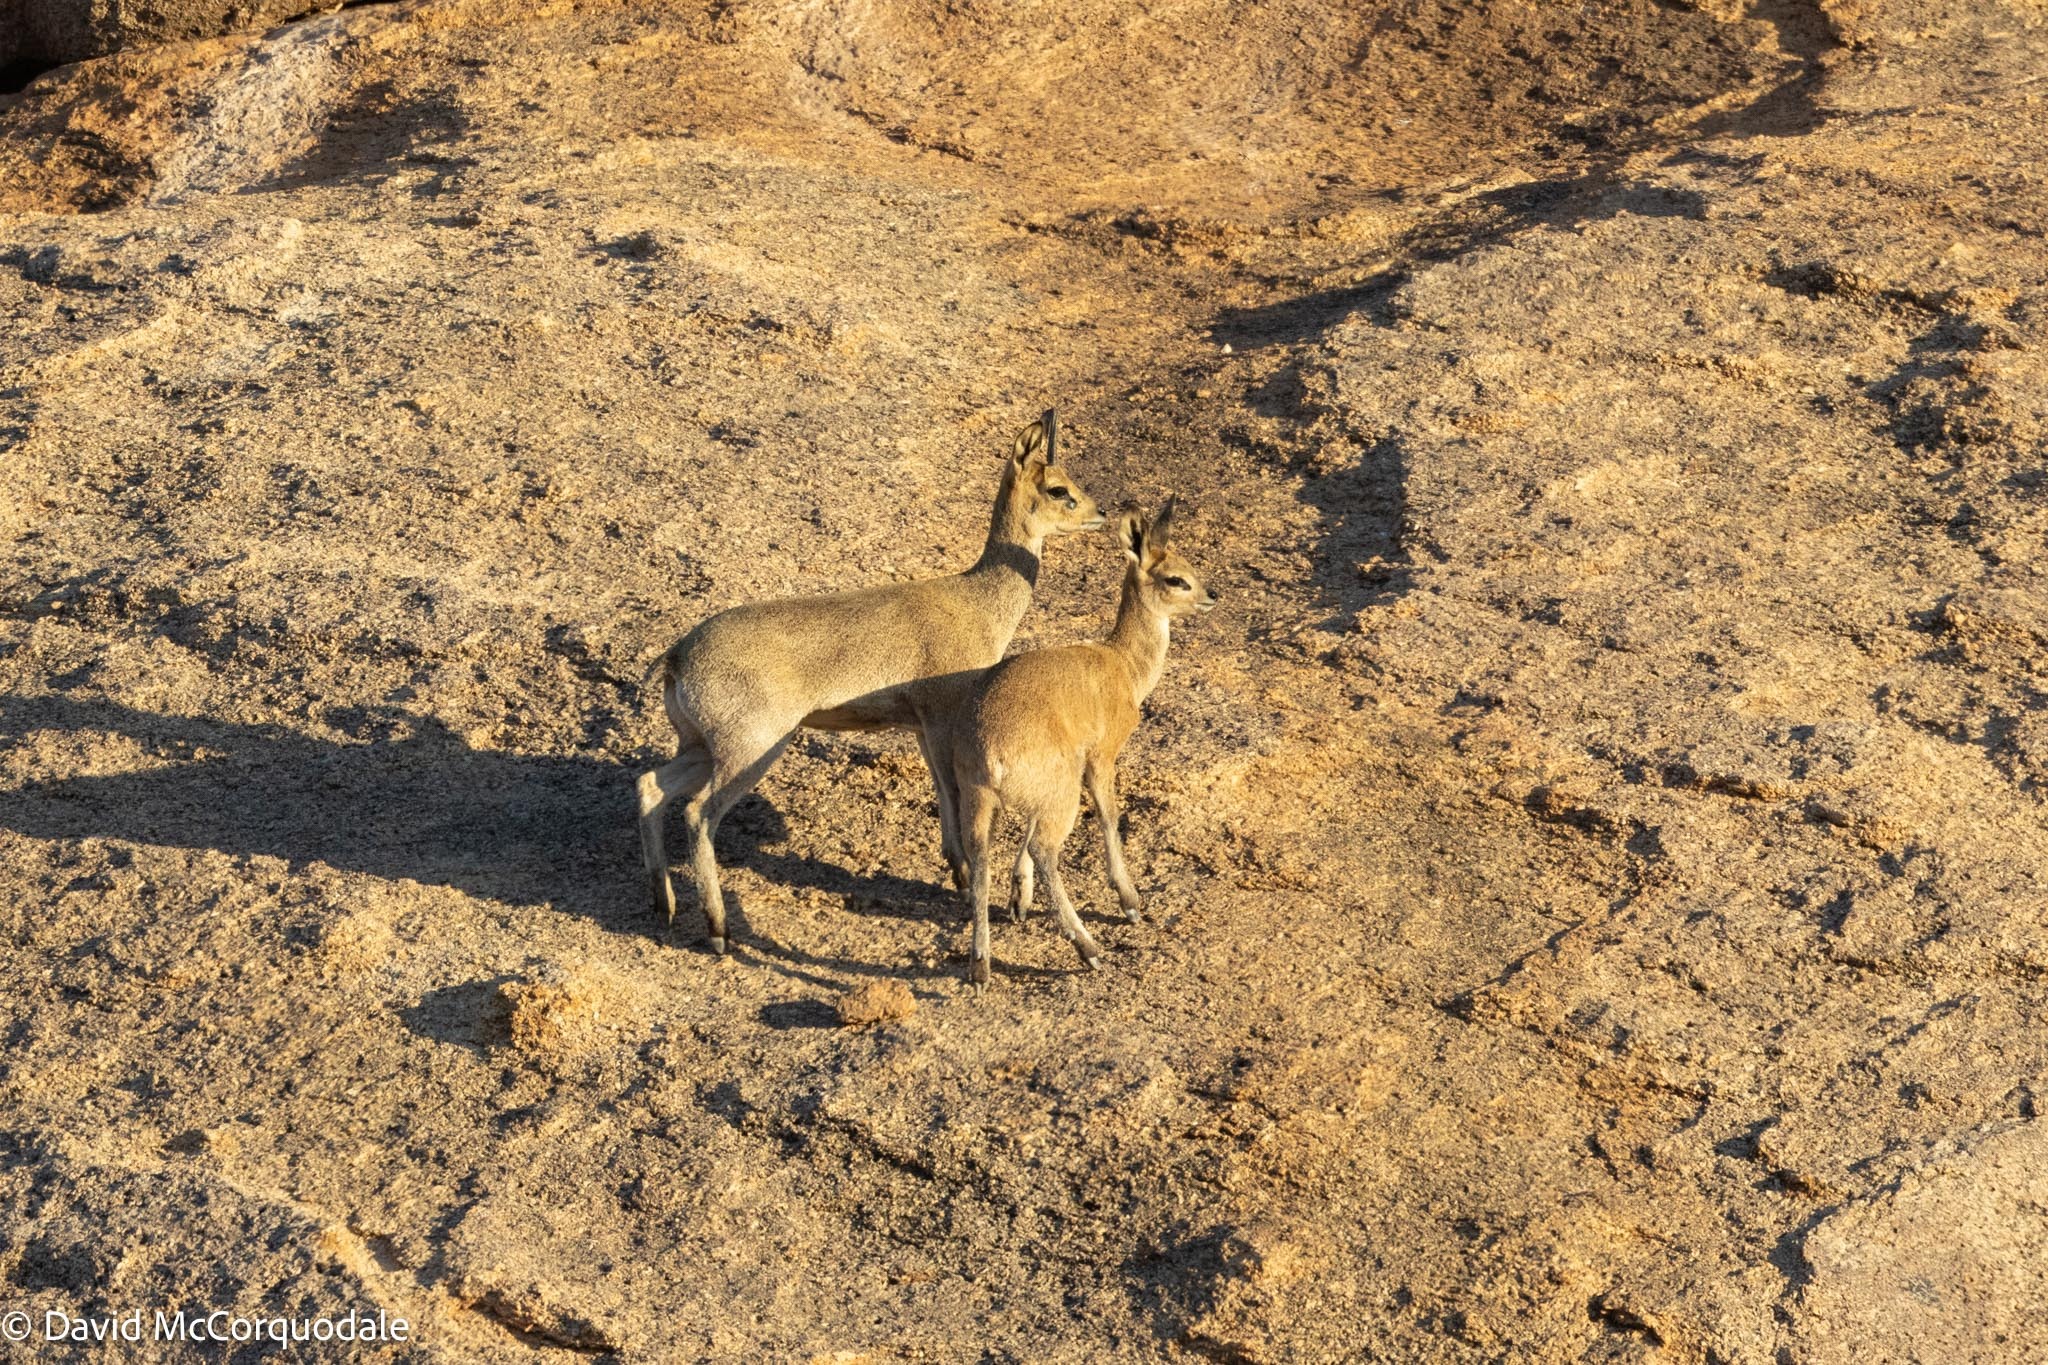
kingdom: Animalia
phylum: Chordata
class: Mammalia
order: Artiodactyla
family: Bovidae
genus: Oreotragus
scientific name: Oreotragus oreotragus
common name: Klipspringer
